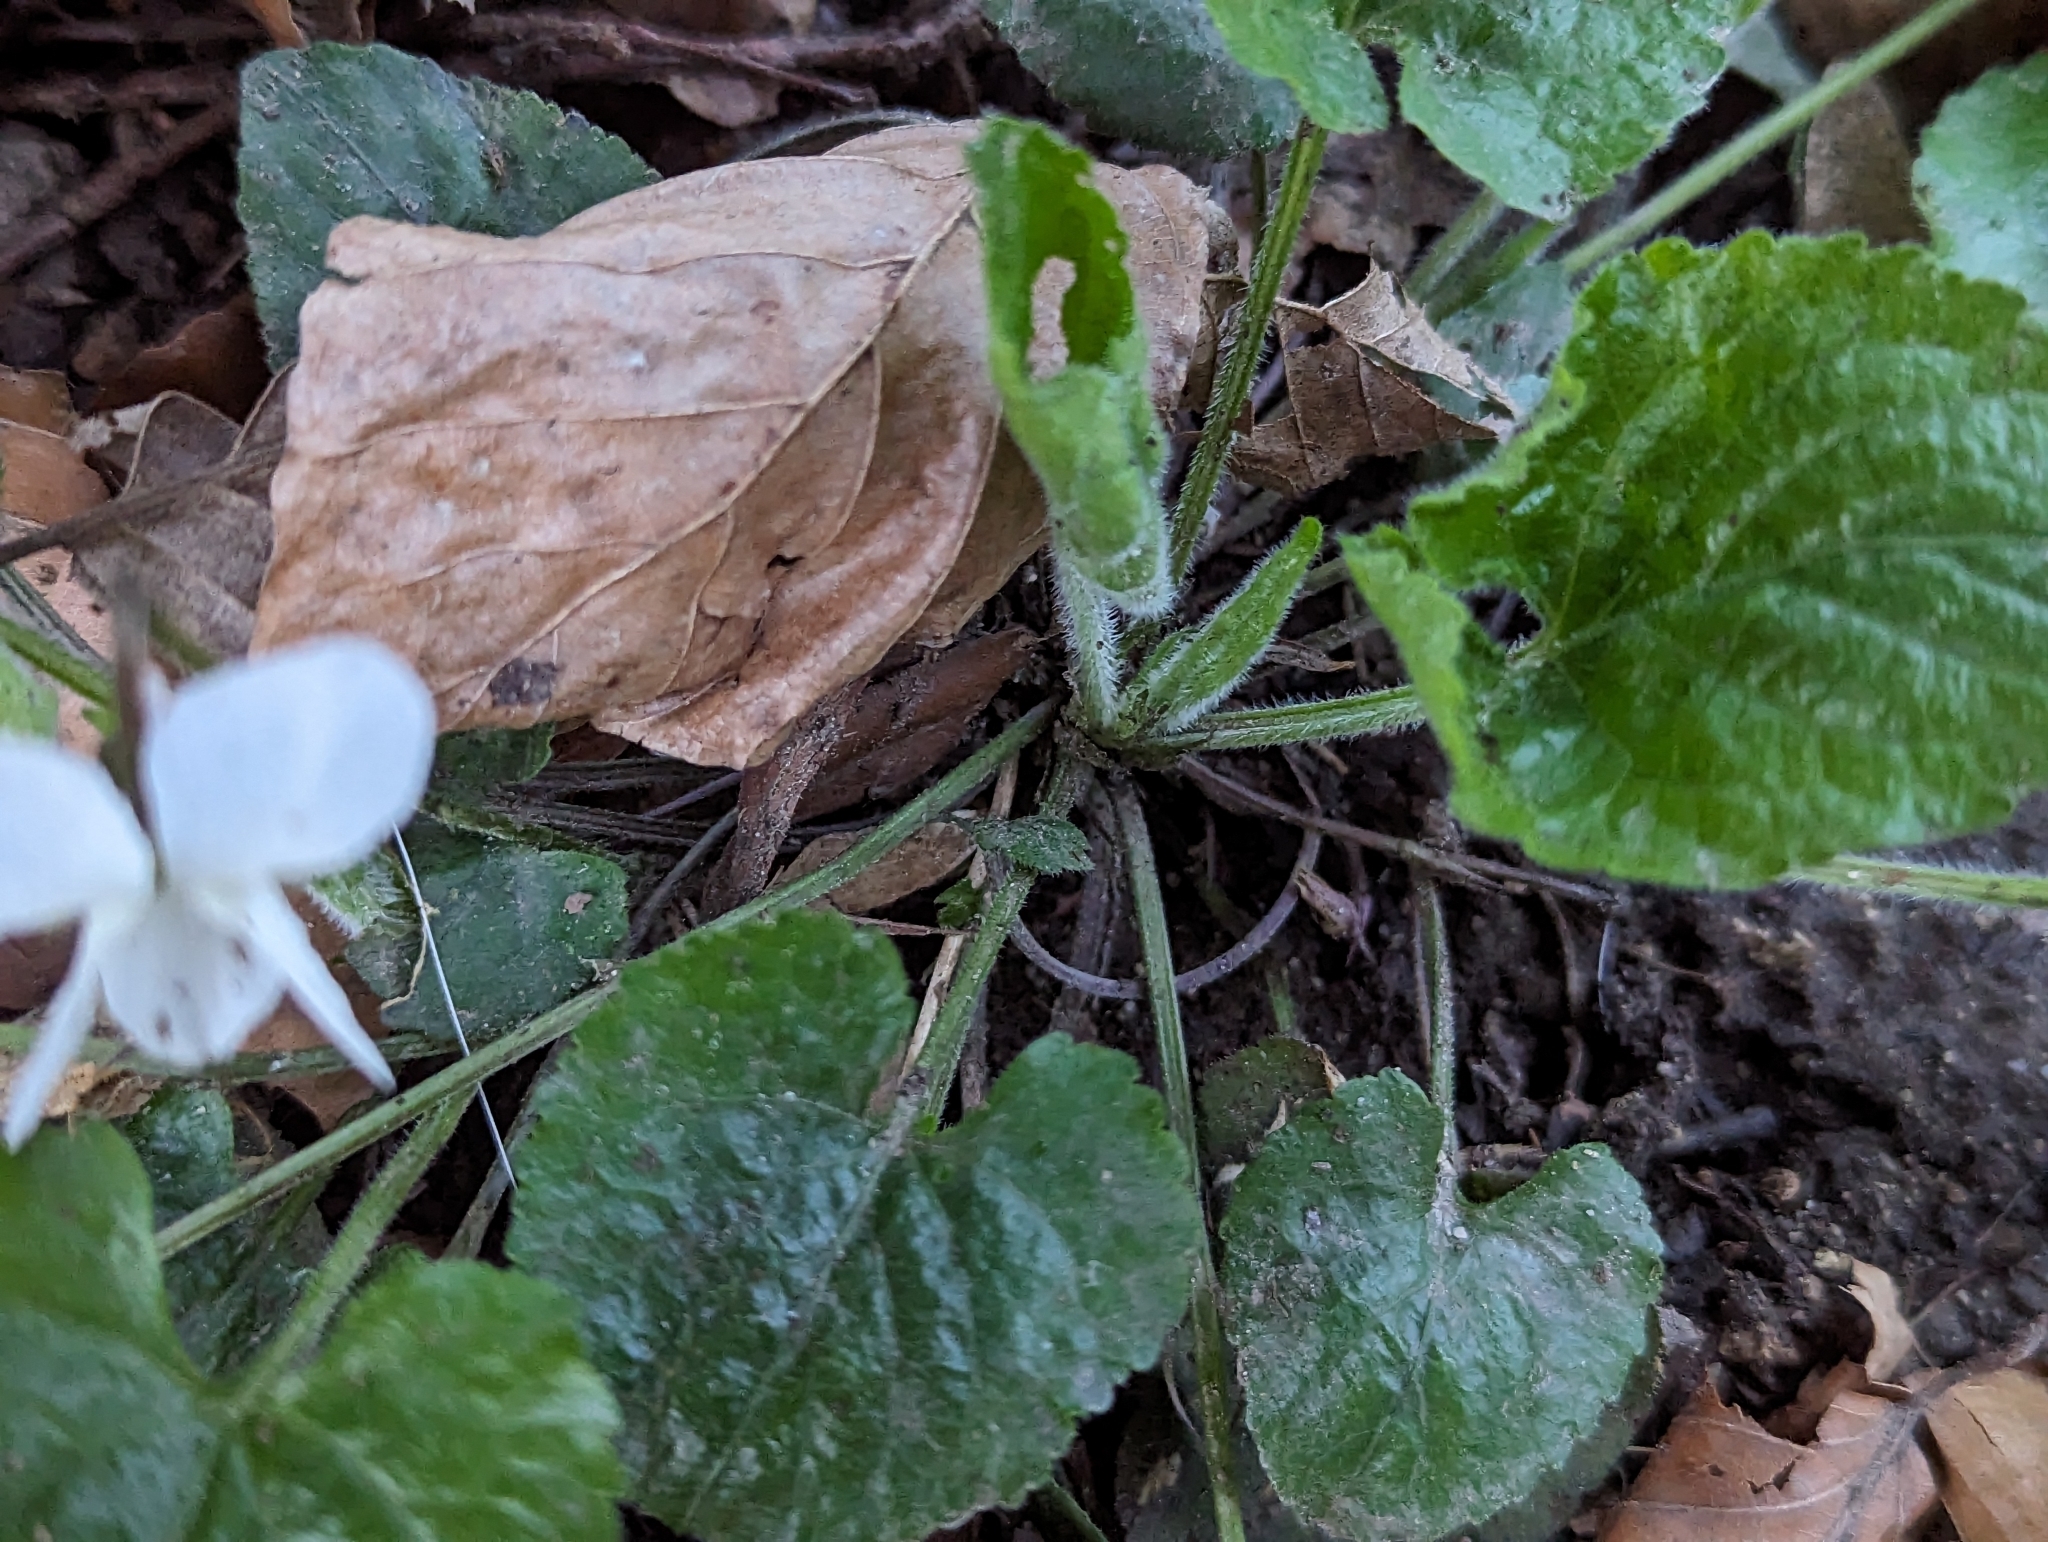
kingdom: Plantae
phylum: Tracheophyta
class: Magnoliopsida
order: Malpighiales
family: Violaceae
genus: Viola
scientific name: Viola alba
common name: White violet
